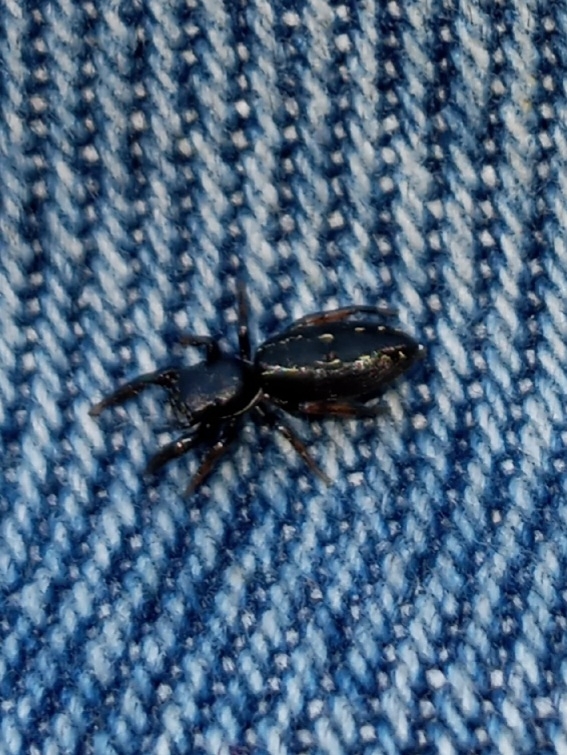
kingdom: Animalia
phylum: Arthropoda
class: Arachnida
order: Araneae
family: Salticidae
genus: Metacyrba
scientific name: Metacyrba taeniola
